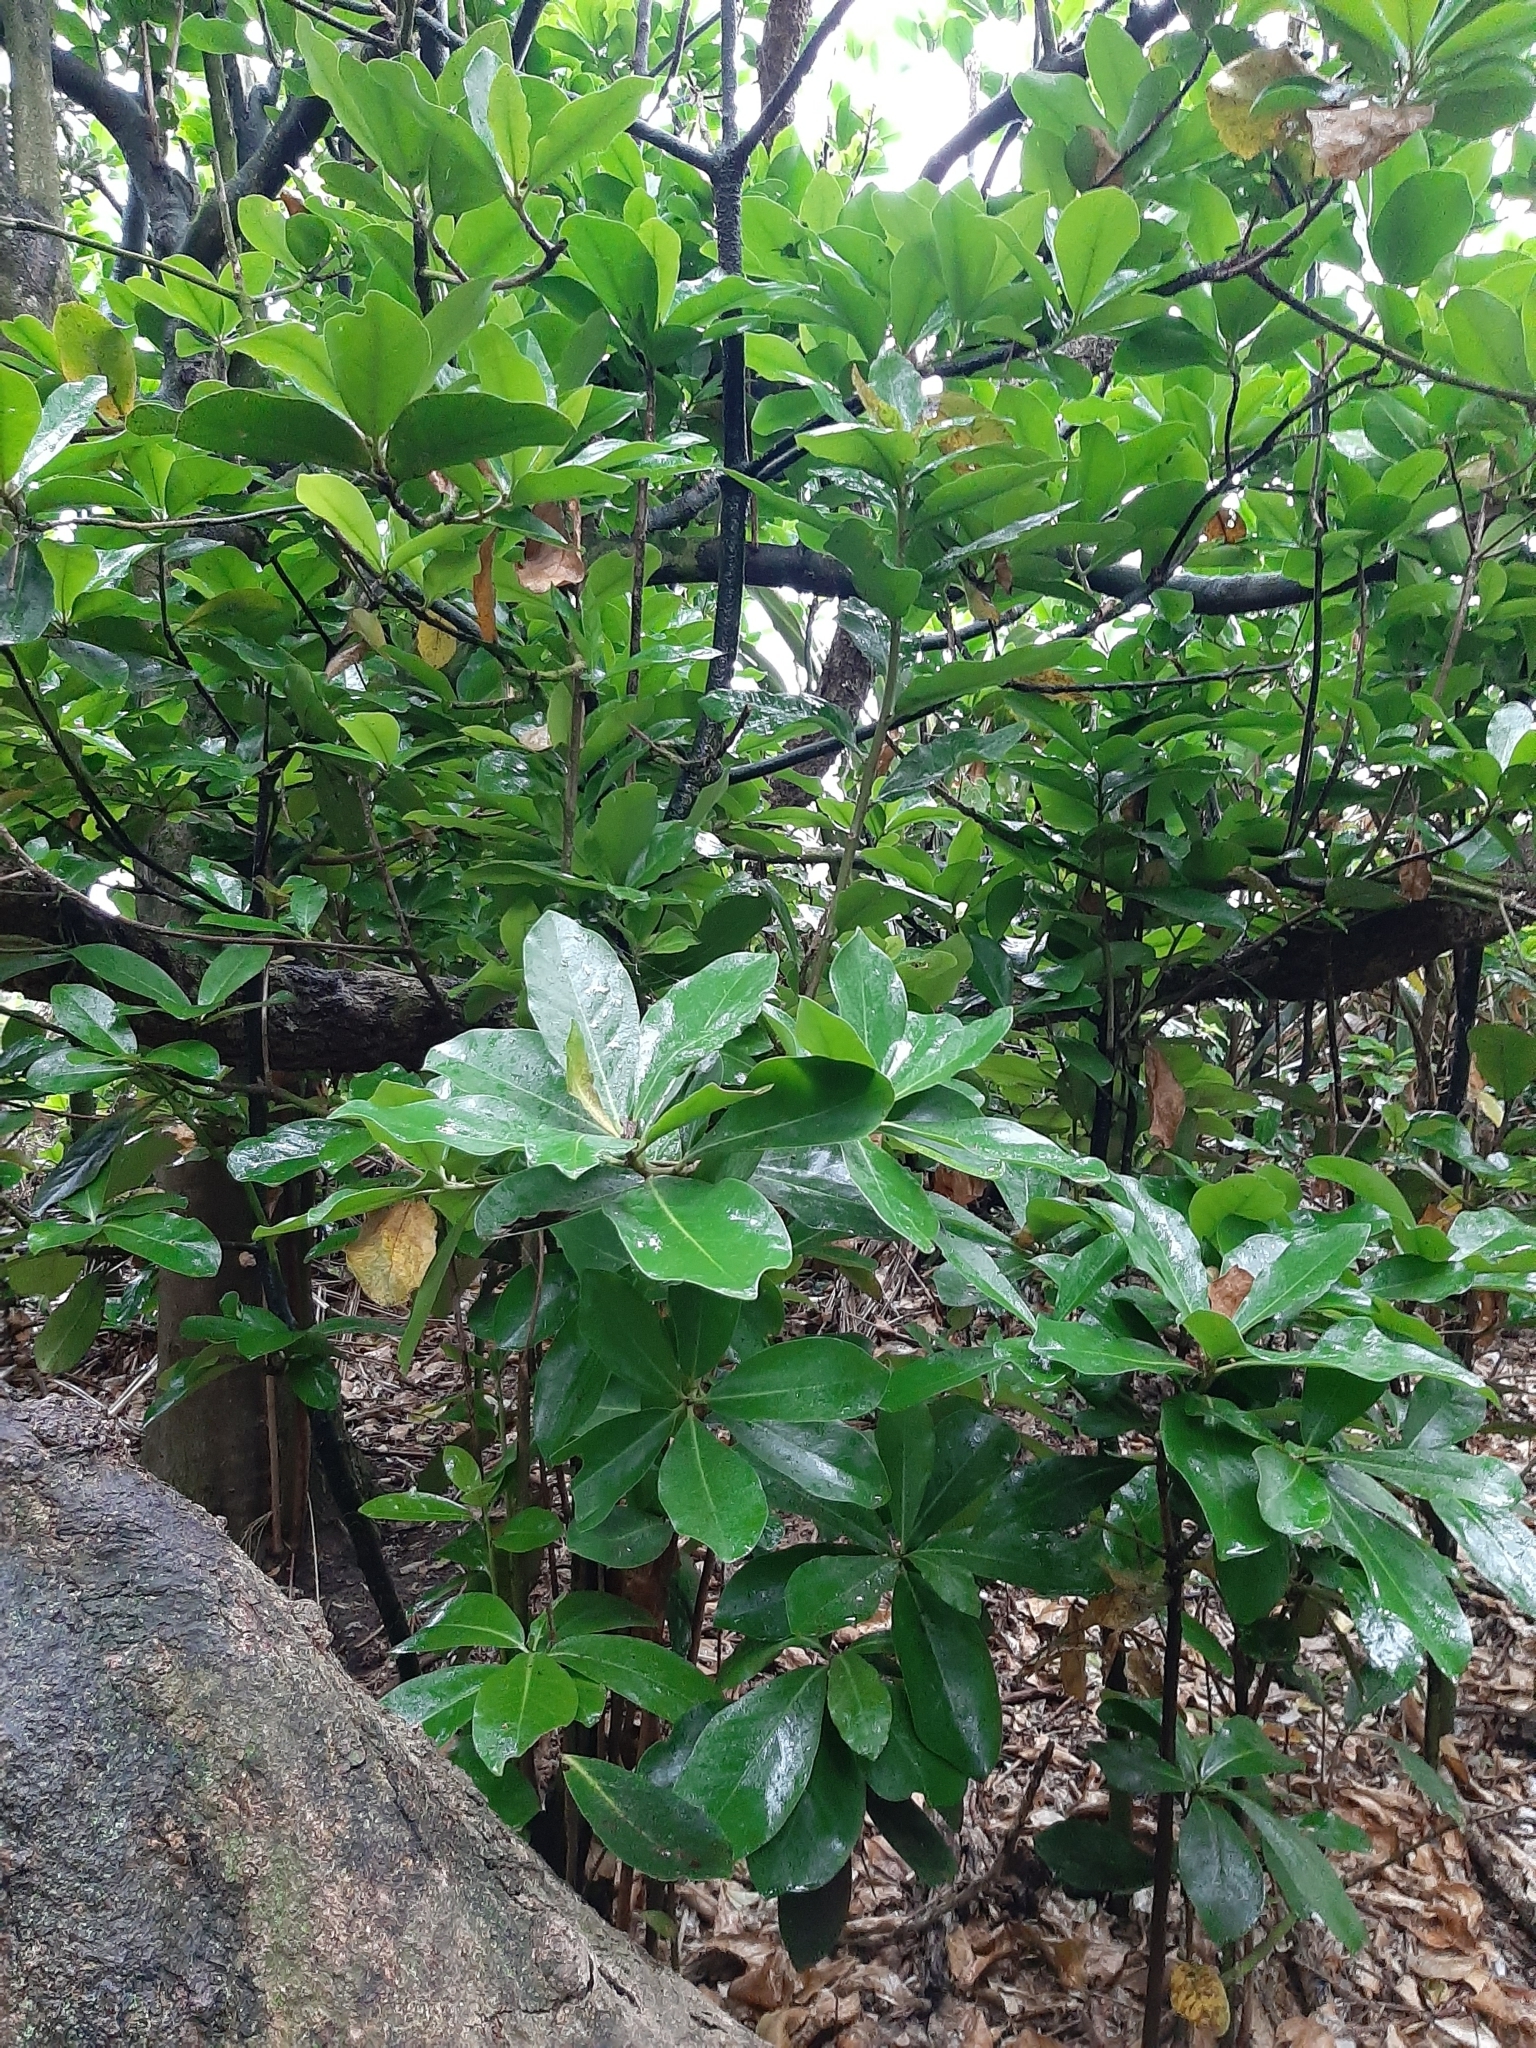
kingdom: Plantae
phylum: Tracheophyta
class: Magnoliopsida
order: Cucurbitales
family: Corynocarpaceae
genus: Corynocarpus
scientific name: Corynocarpus laevigatus
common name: New zealand laurel
